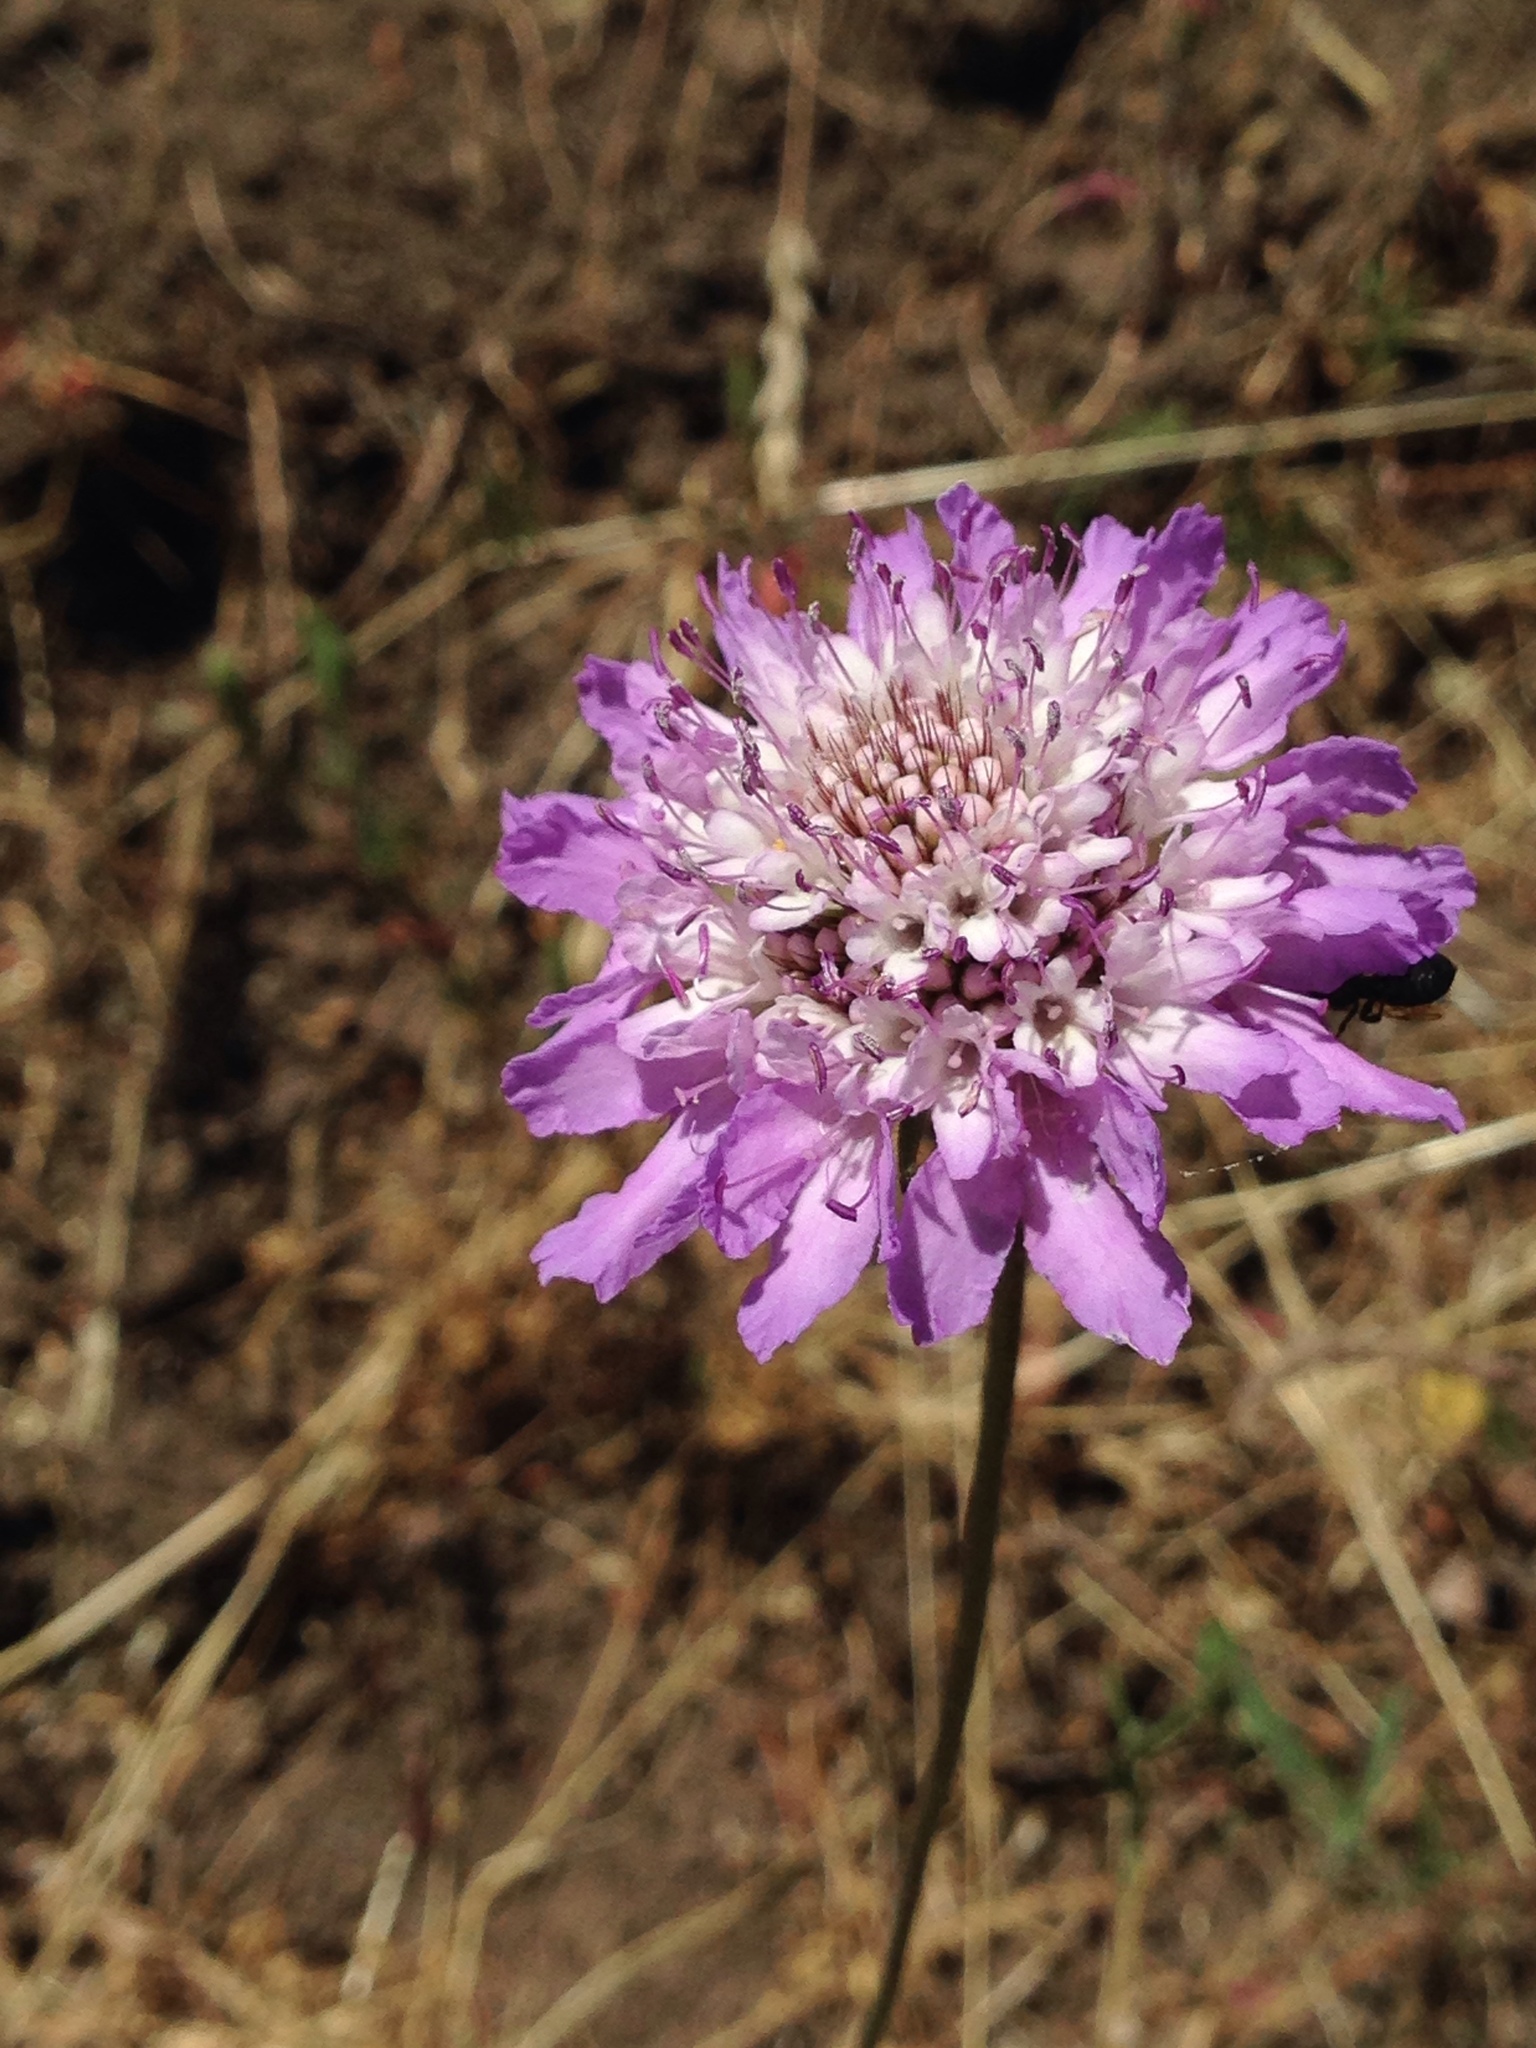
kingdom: Plantae
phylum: Tracheophyta
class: Magnoliopsida
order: Dipsacales
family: Caprifoliaceae
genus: Sixalix
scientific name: Sixalix atropurpurea
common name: Sweet scabious
